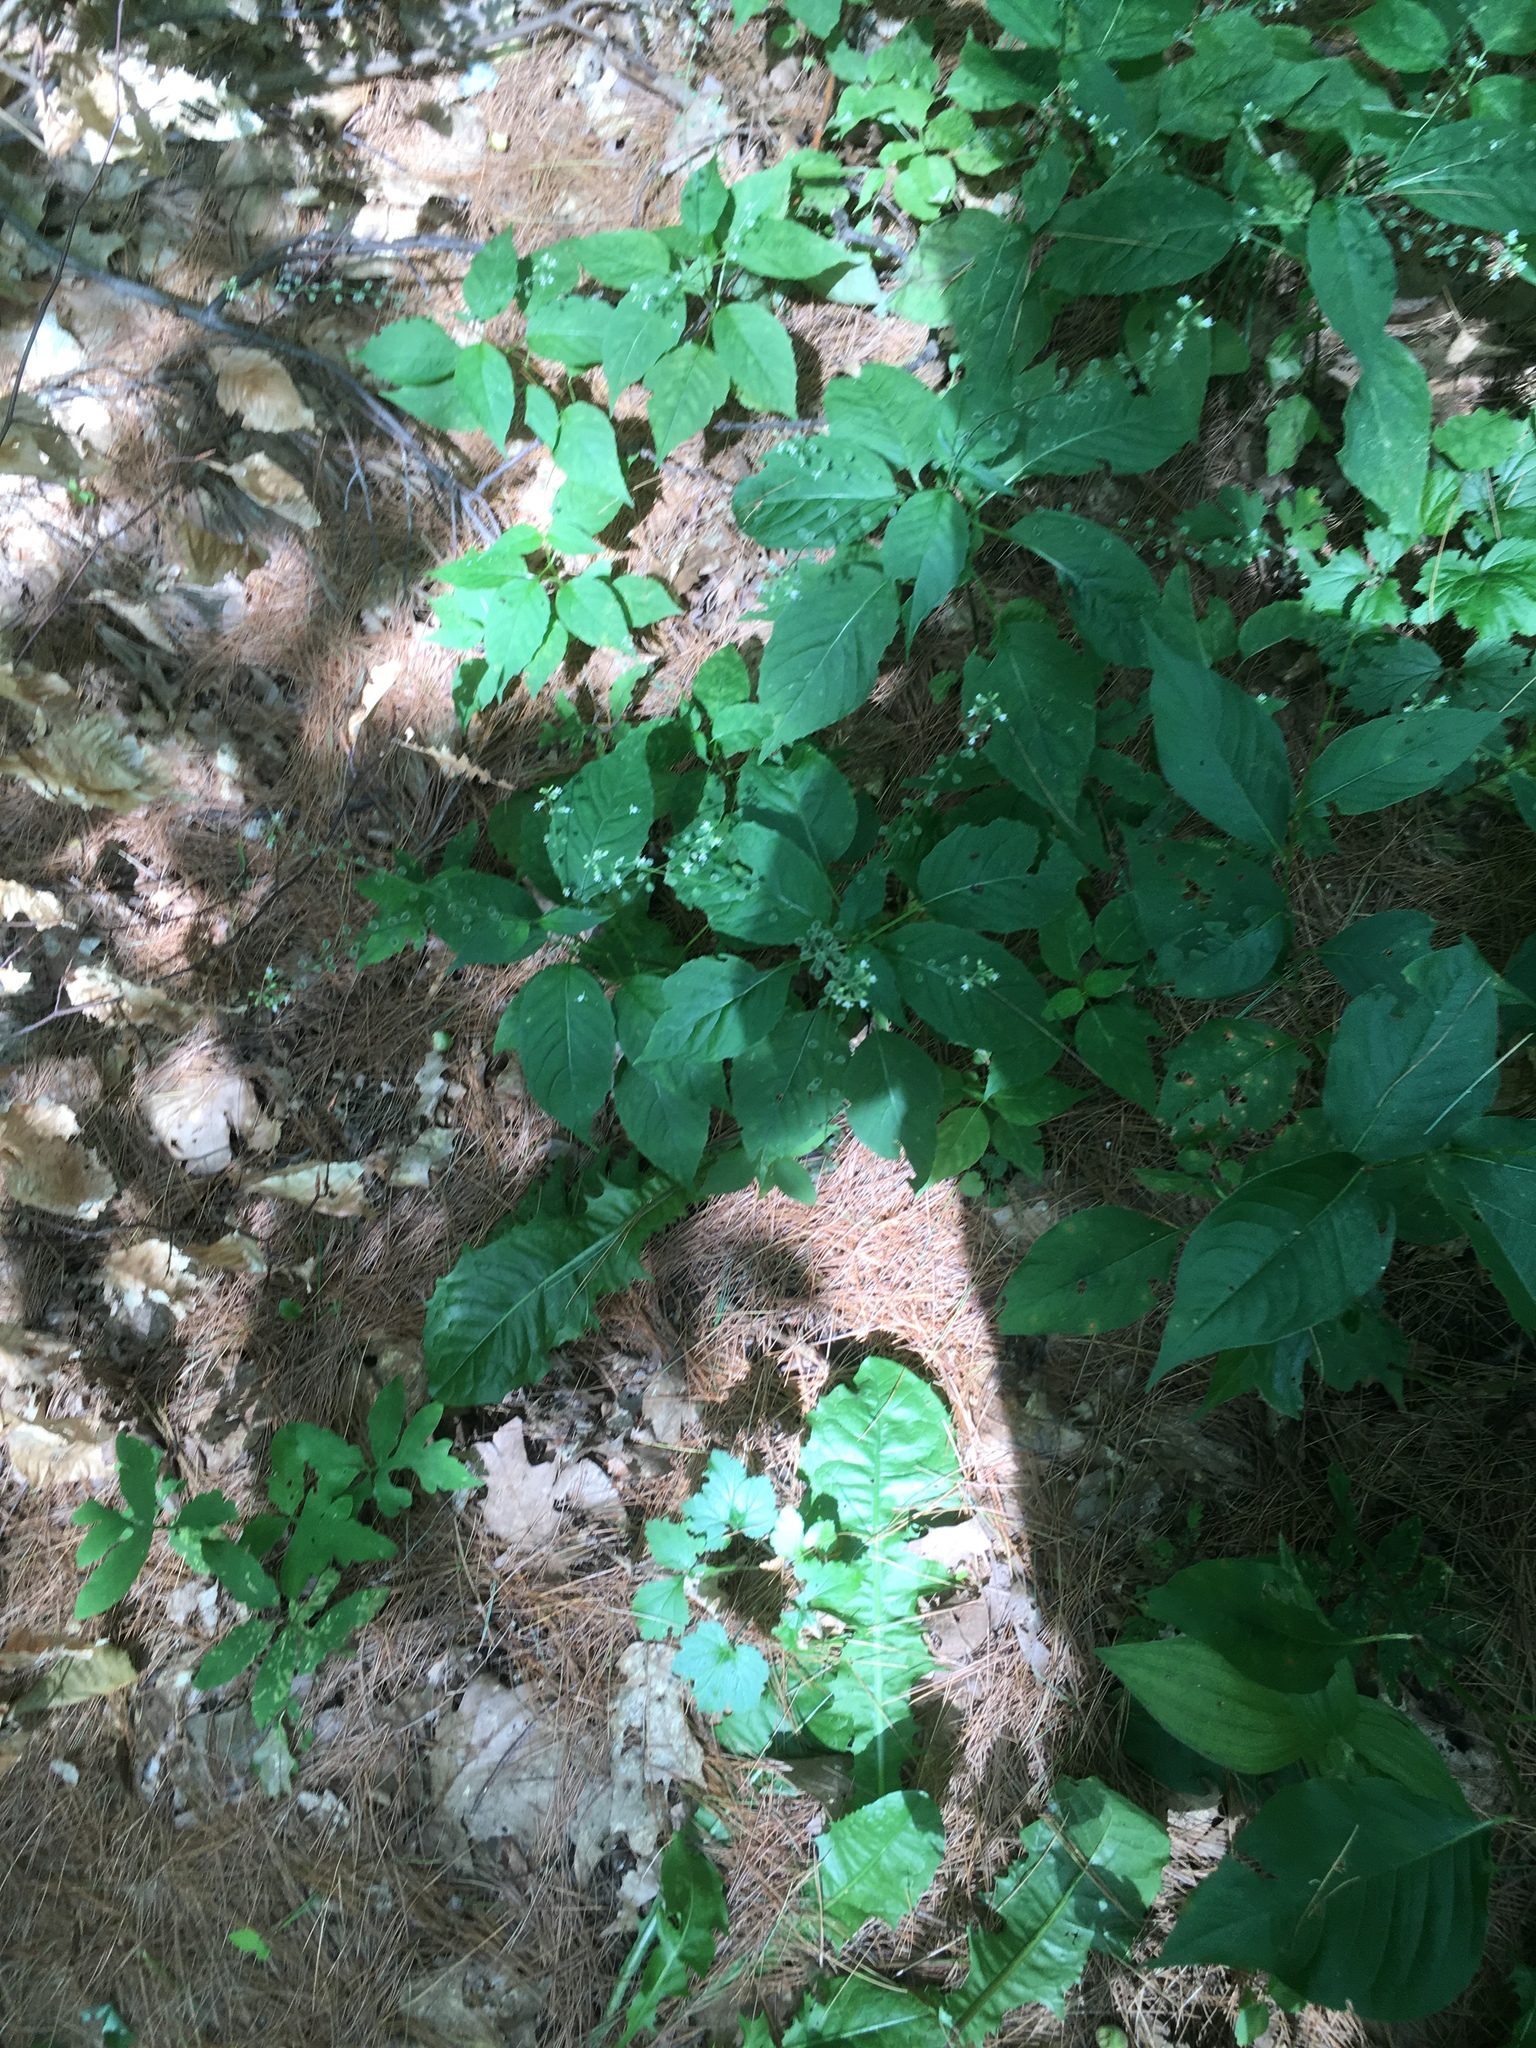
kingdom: Plantae
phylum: Tracheophyta
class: Magnoliopsida
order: Myrtales
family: Onagraceae
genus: Circaea
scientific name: Circaea canadensis
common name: Broad-leaved enchanter's nightshade
